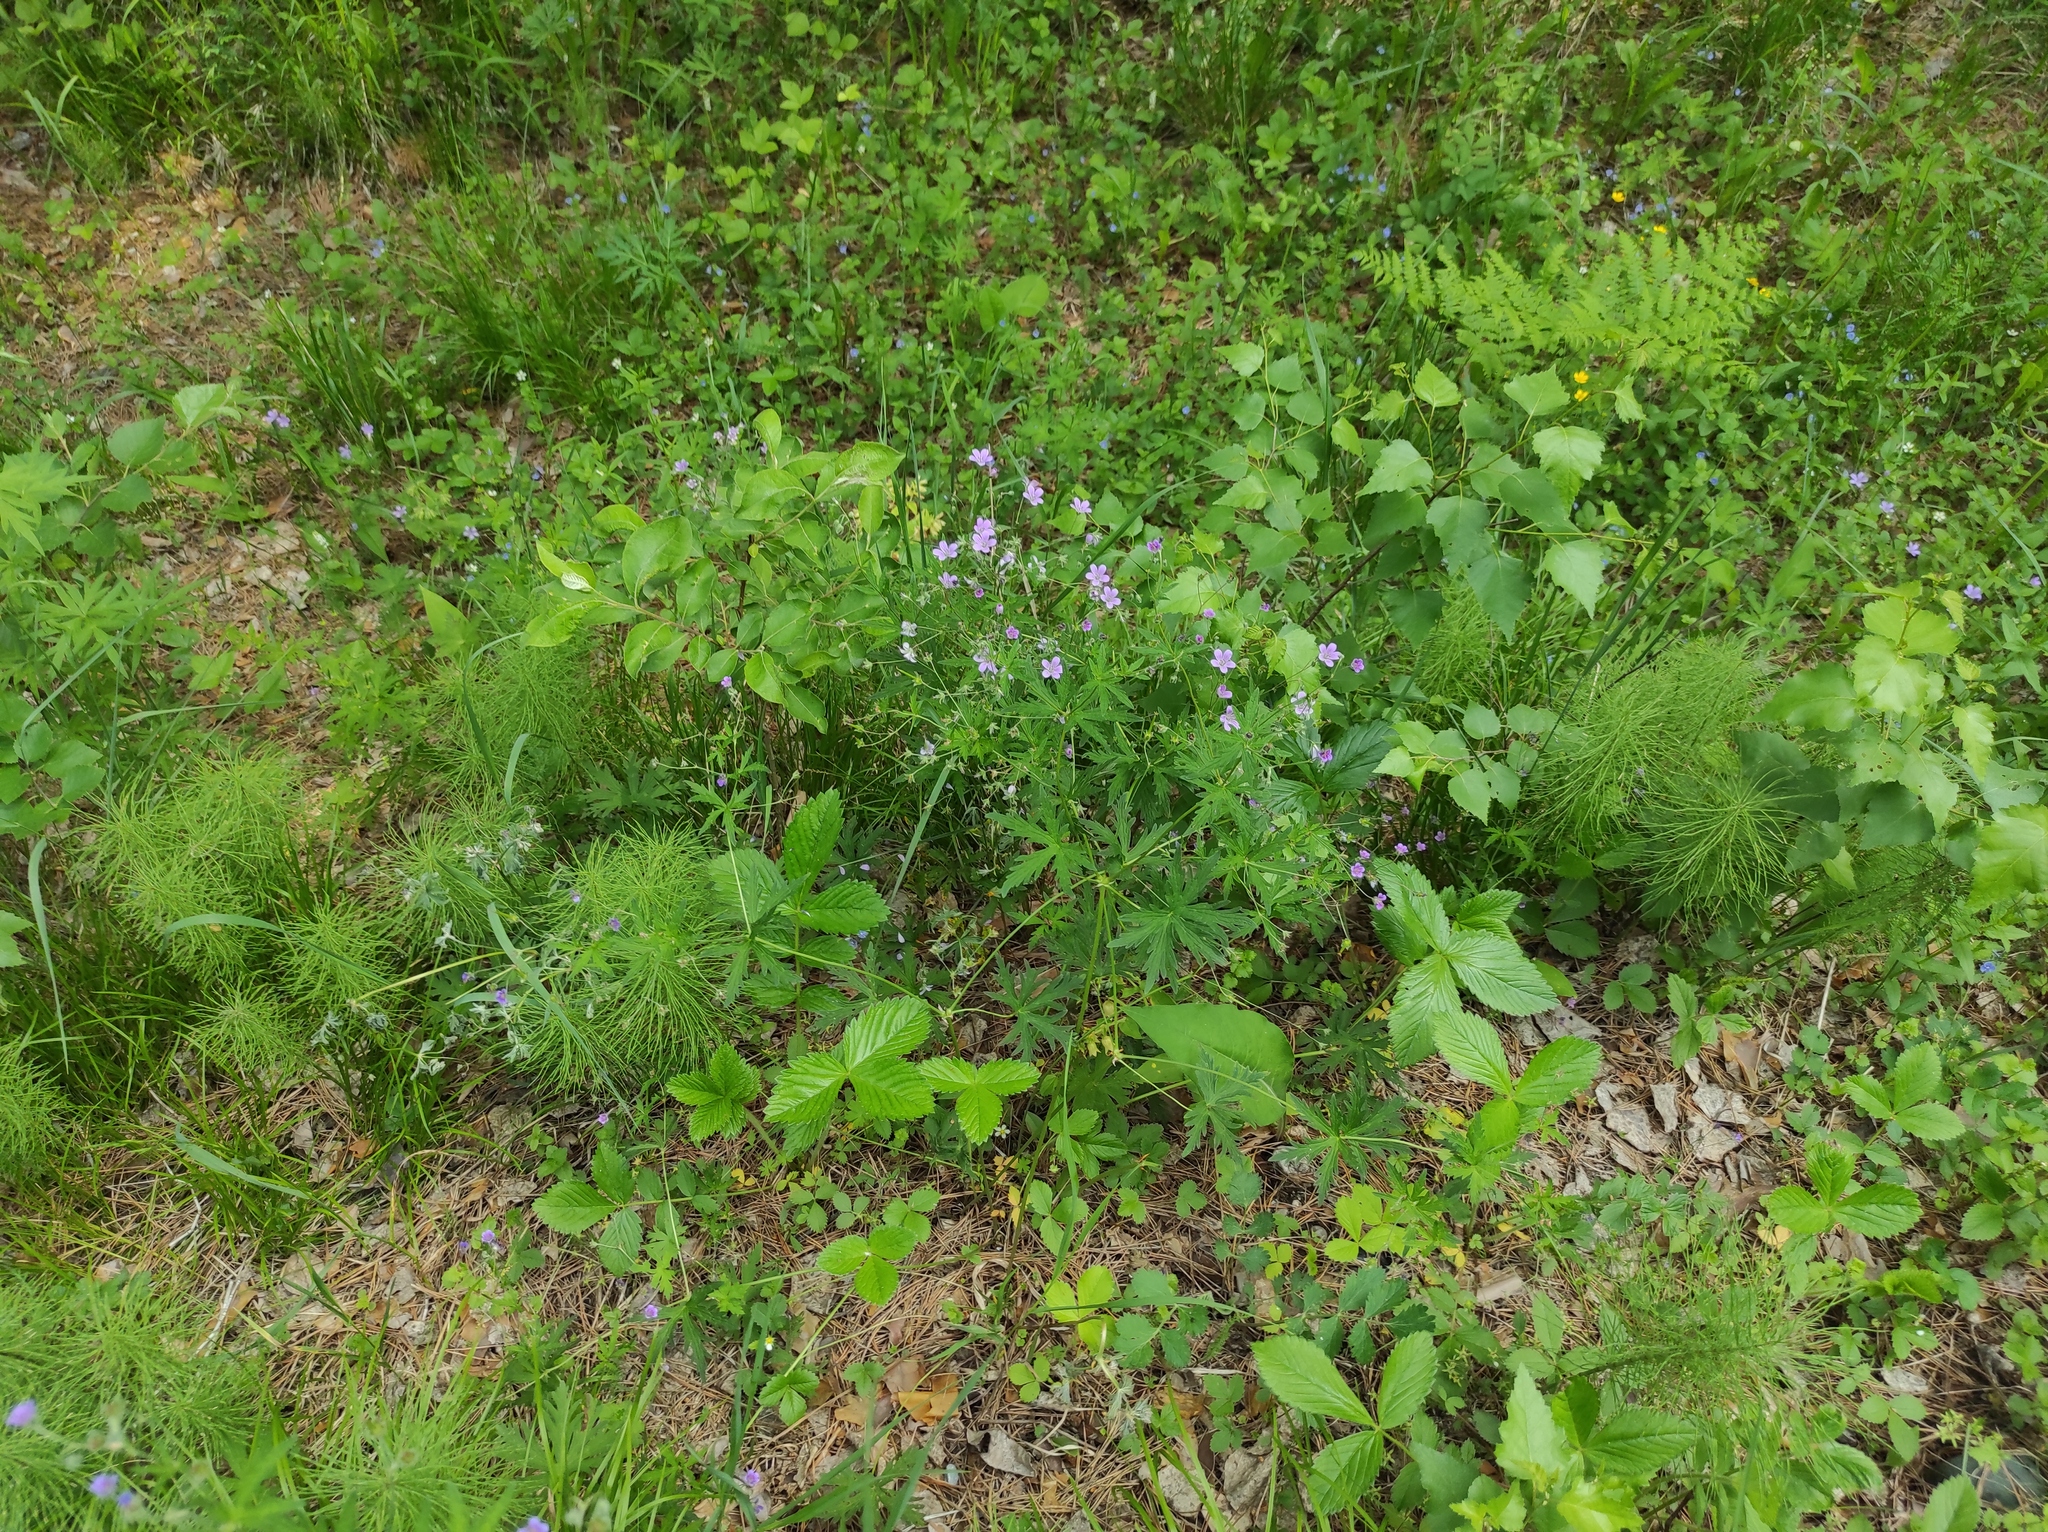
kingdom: Plantae
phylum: Tracheophyta
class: Magnoliopsida
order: Geraniales
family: Geraniaceae
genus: Geranium
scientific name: Geranium pseudosibiricum
